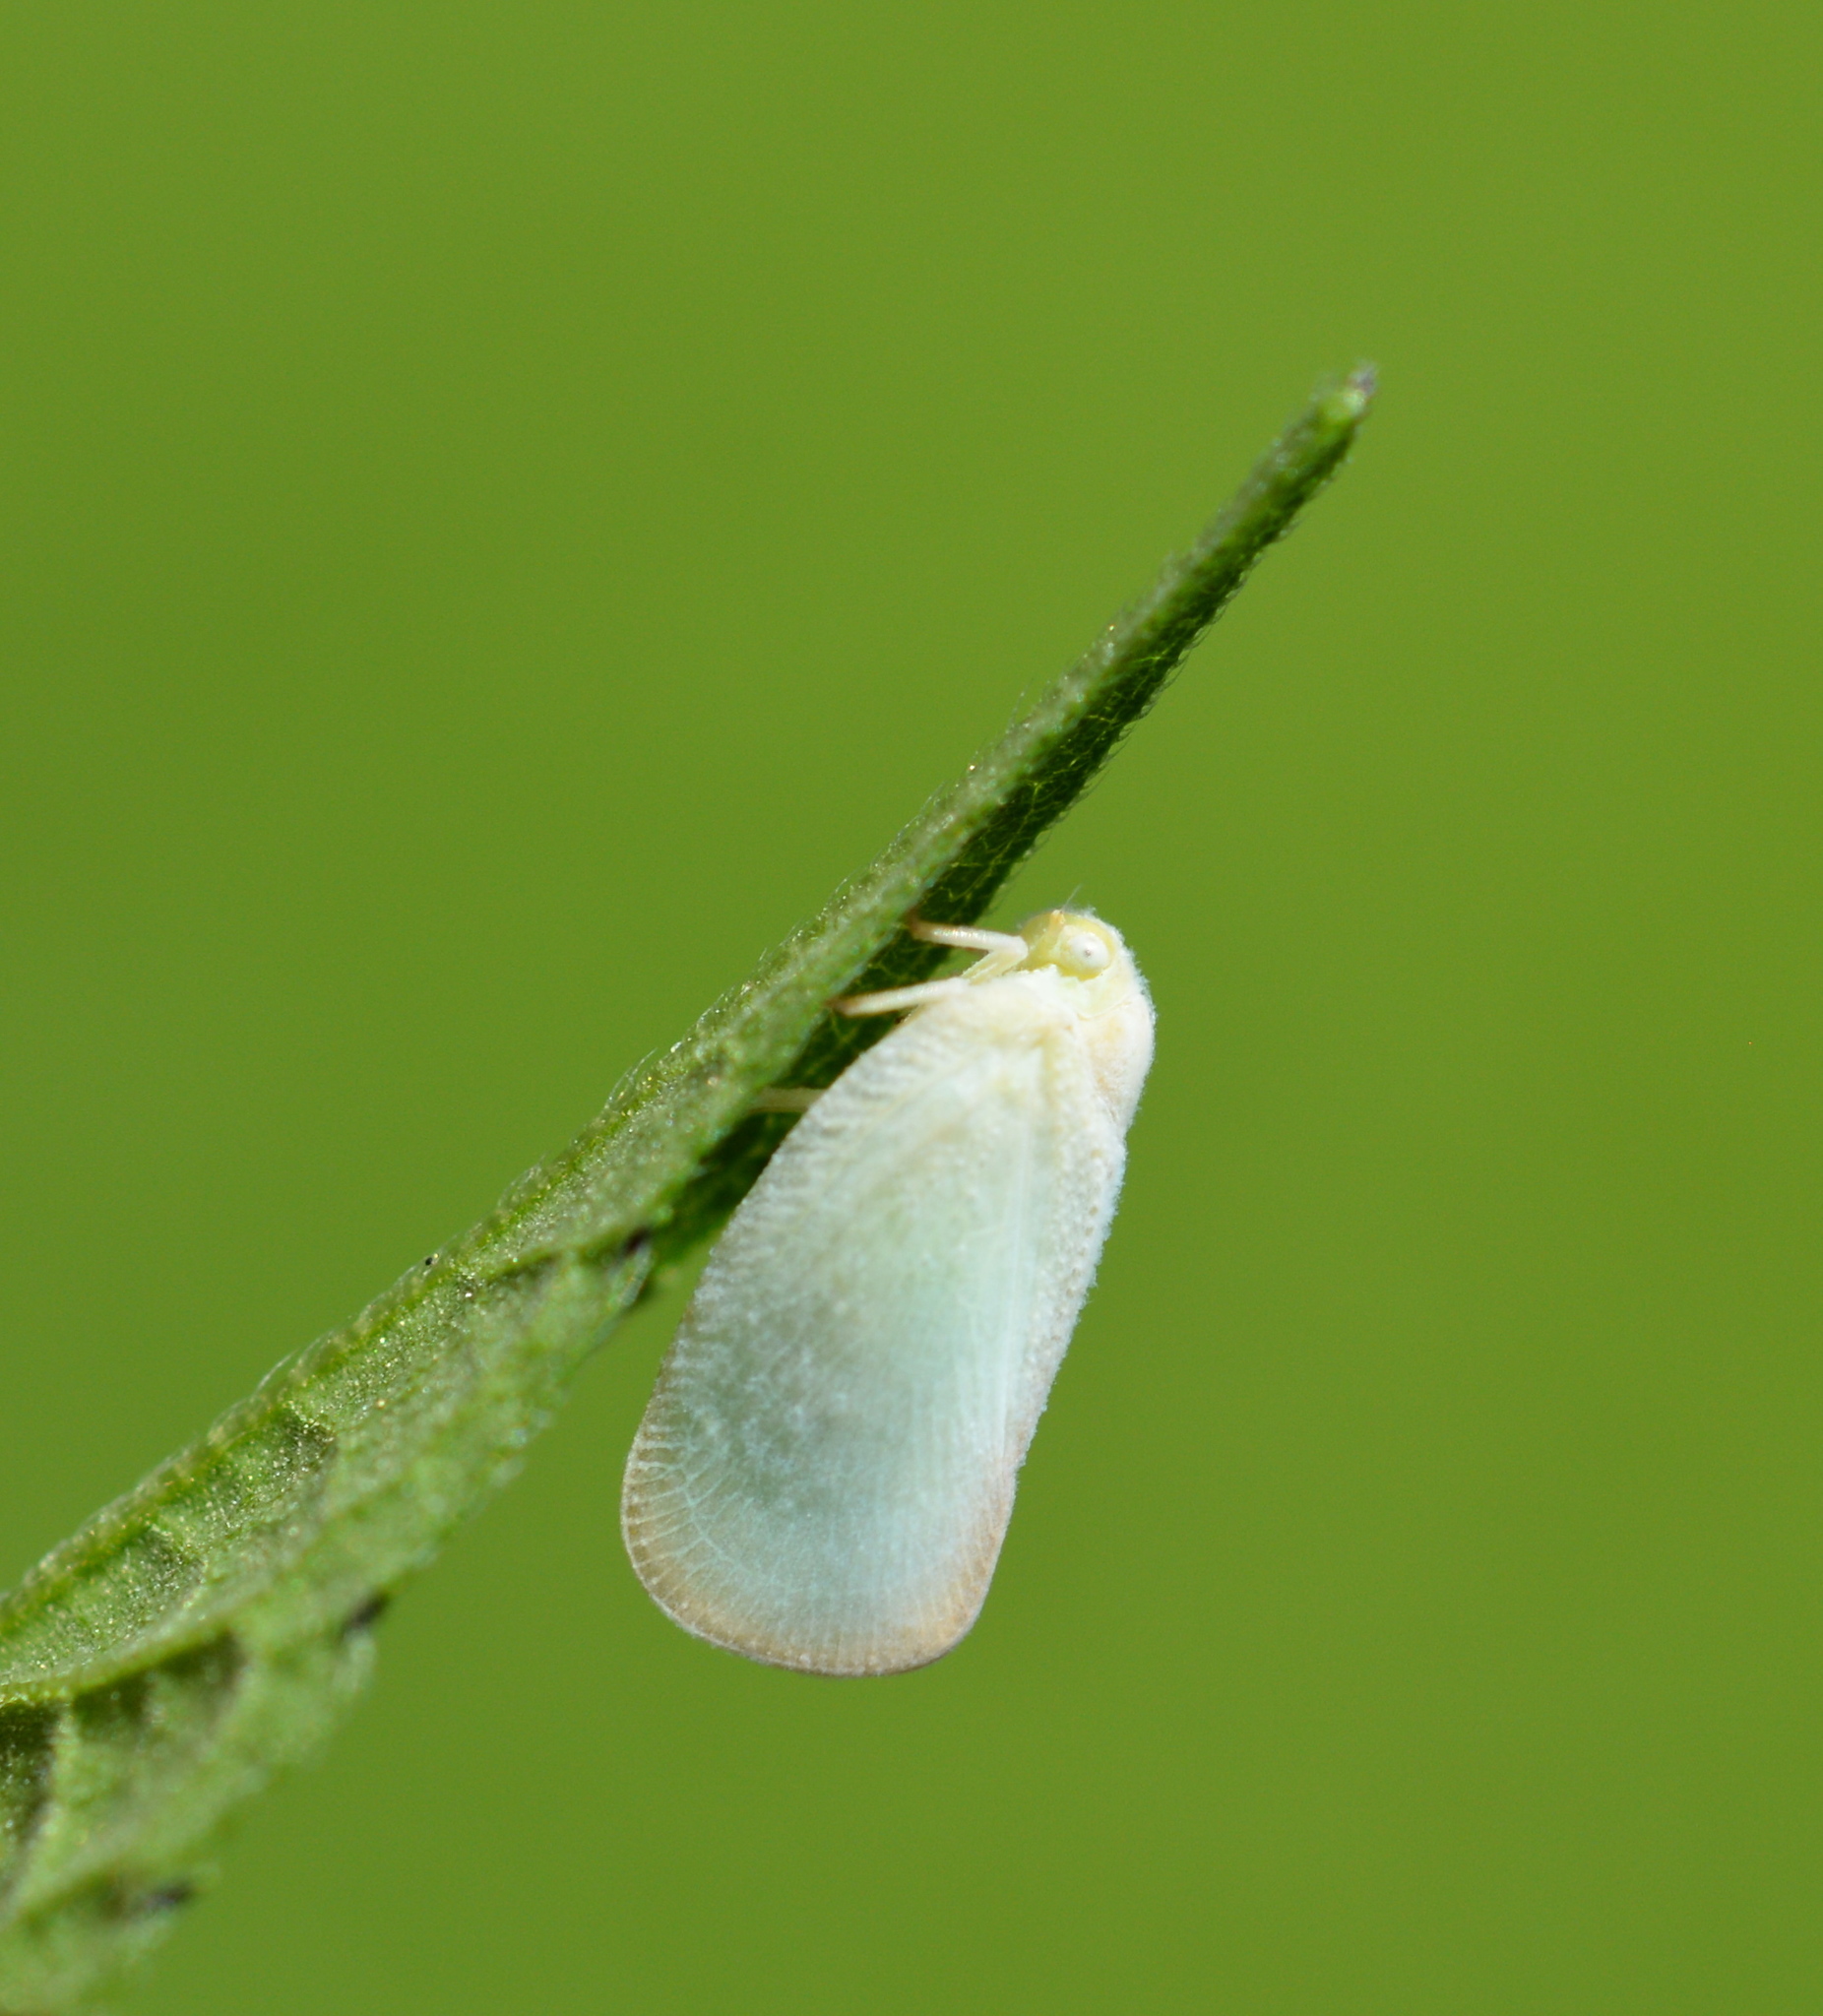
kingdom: Animalia
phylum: Arthropoda
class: Insecta
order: Hemiptera
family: Flatidae
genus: Ormenoides
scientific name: Ormenoides venusta
